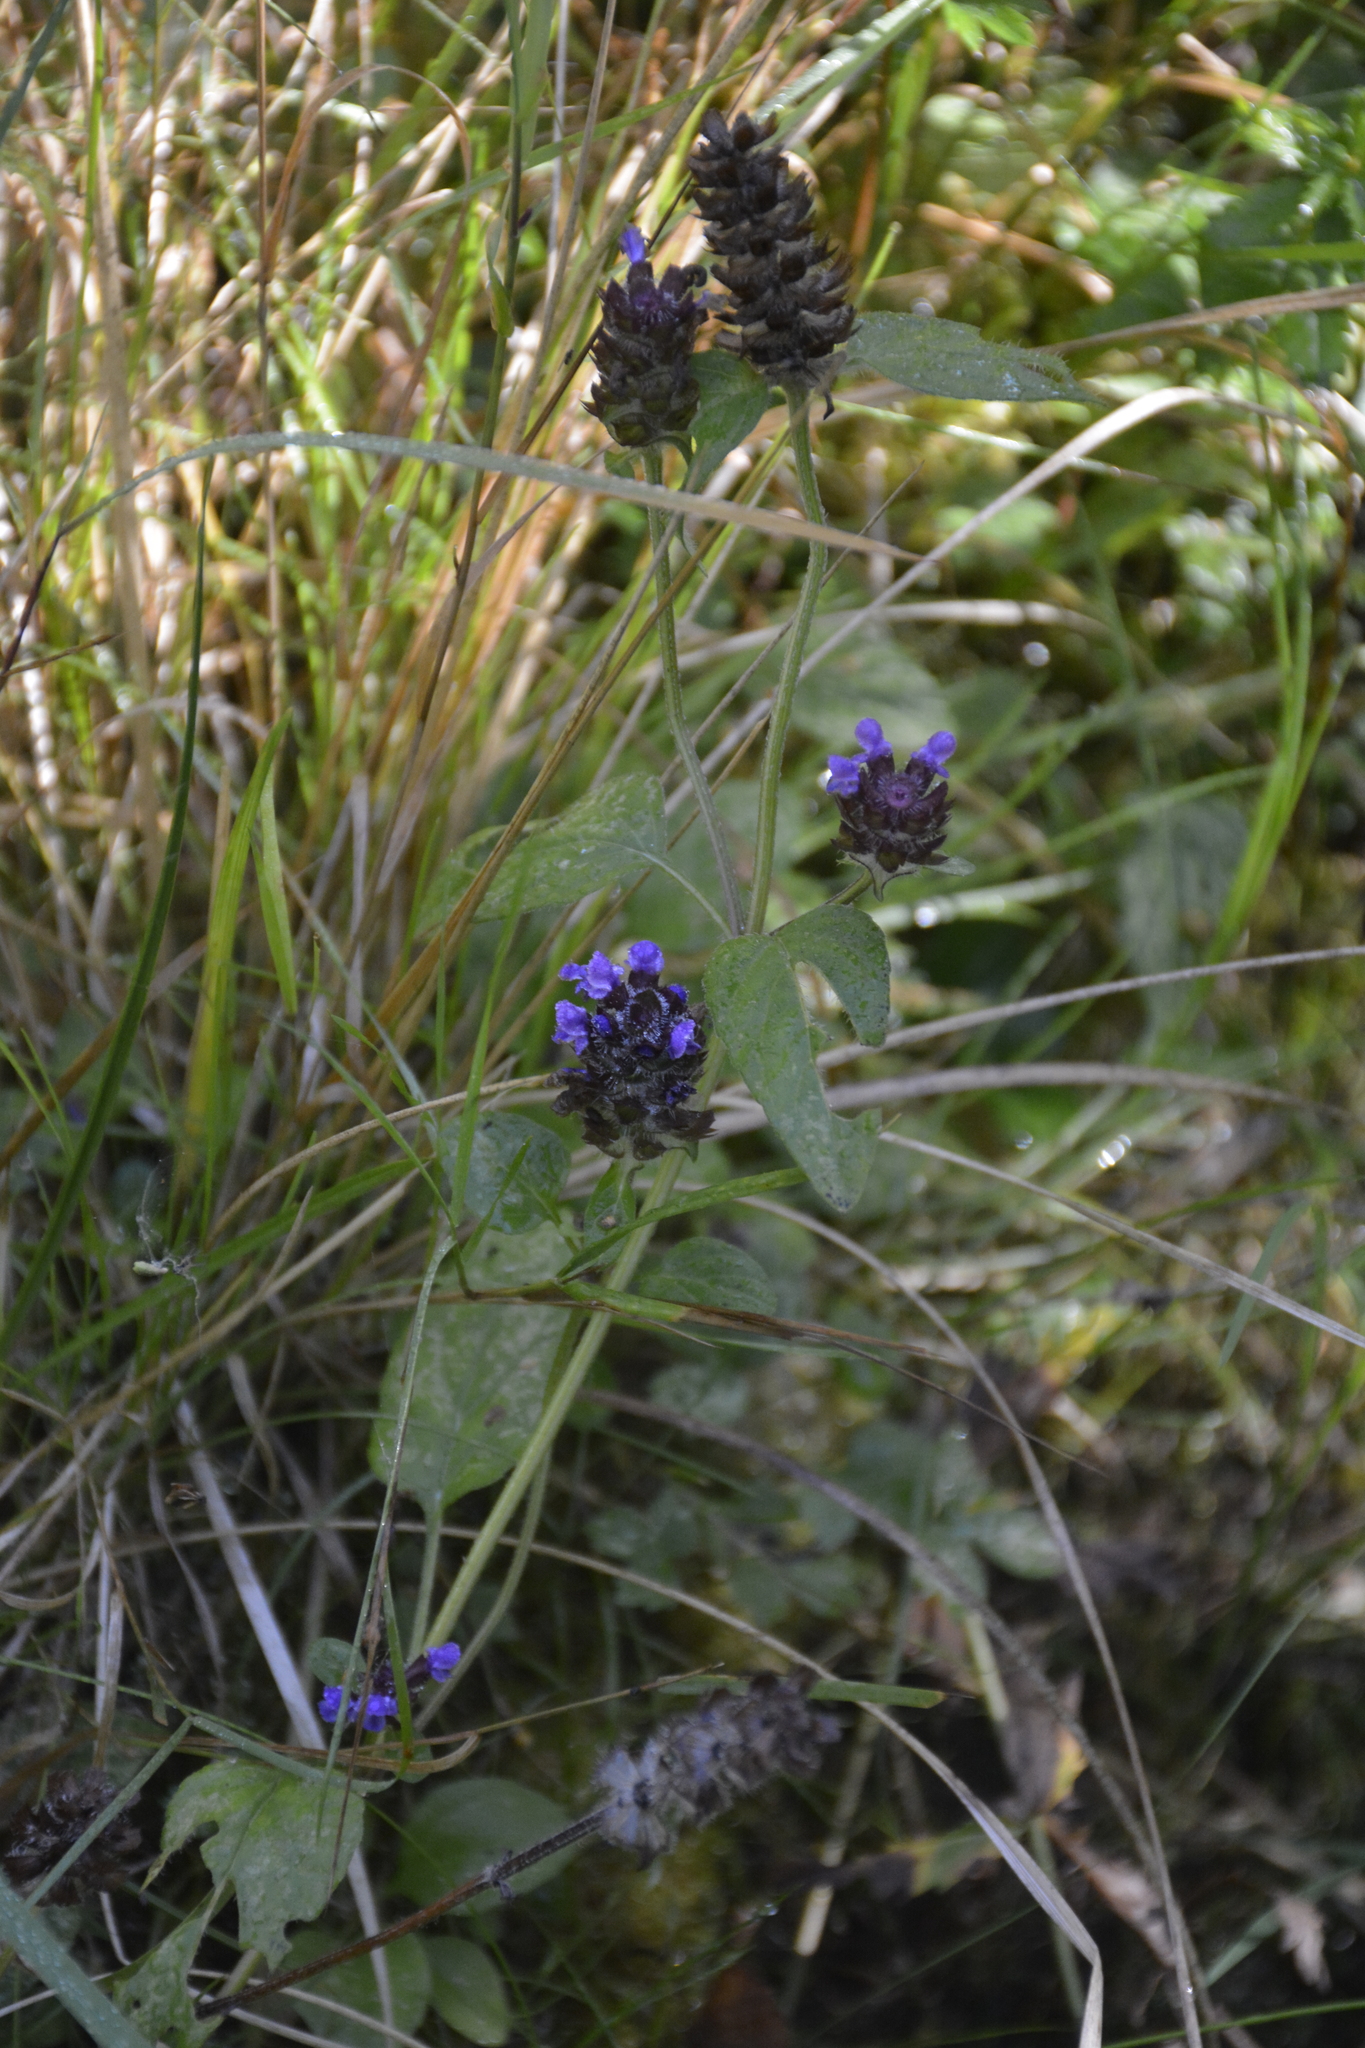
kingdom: Plantae
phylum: Tracheophyta
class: Magnoliopsida
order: Lamiales
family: Lamiaceae
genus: Prunella
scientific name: Prunella vulgaris
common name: Heal-all
